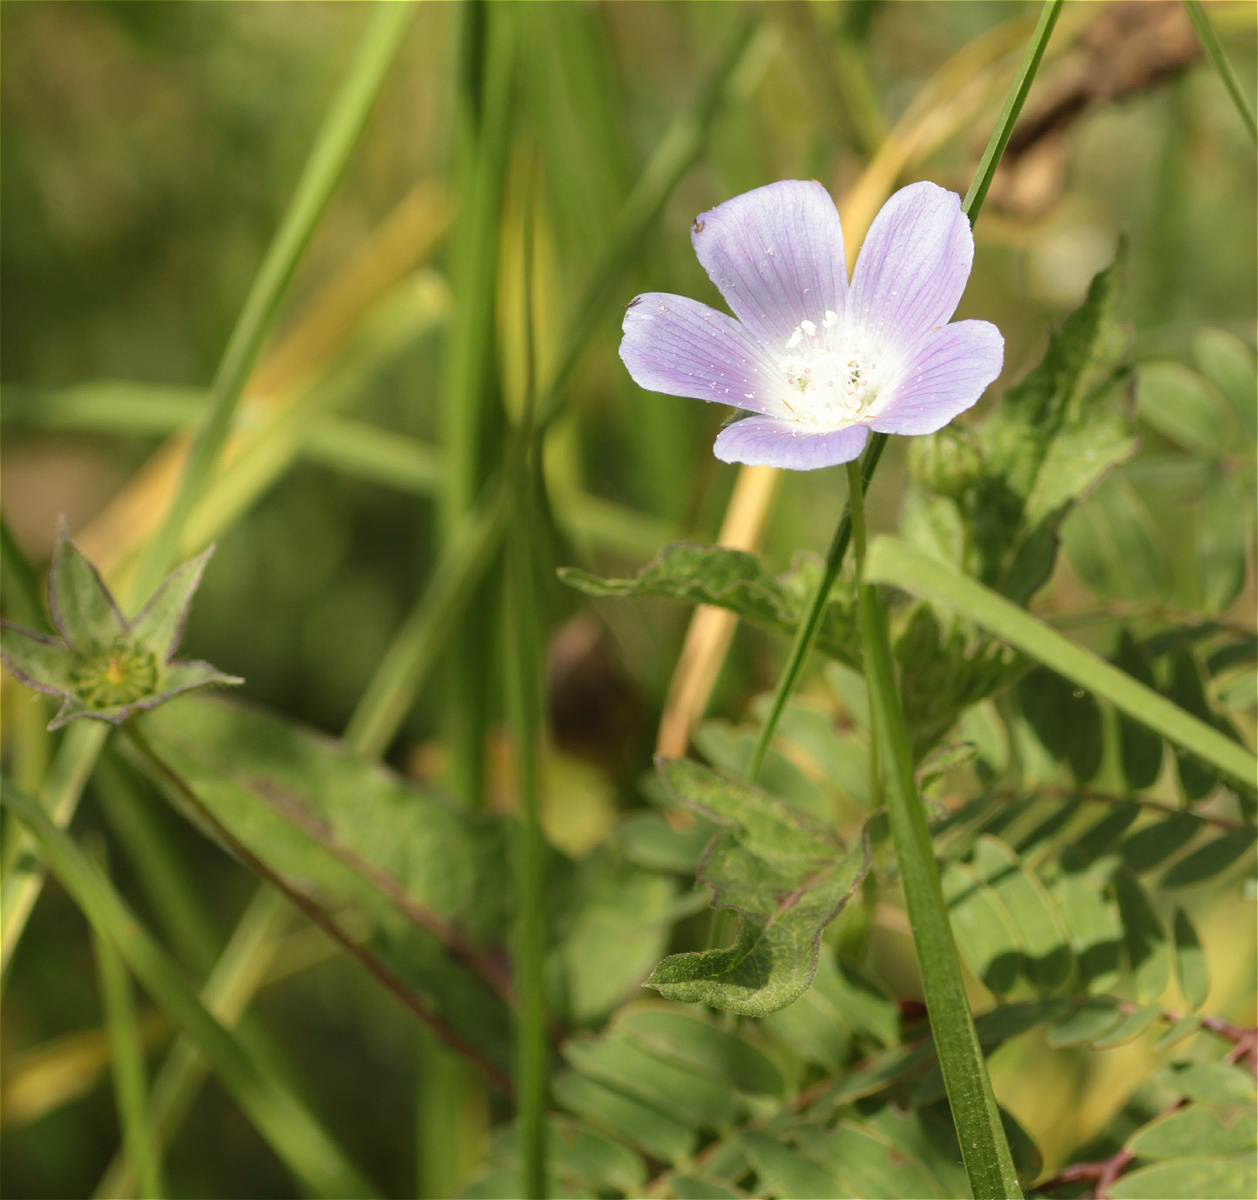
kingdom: Plantae
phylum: Tracheophyta
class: Magnoliopsida
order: Malvales
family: Malvaceae
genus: Anoda
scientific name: Anoda cristata
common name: Spurred anoda
